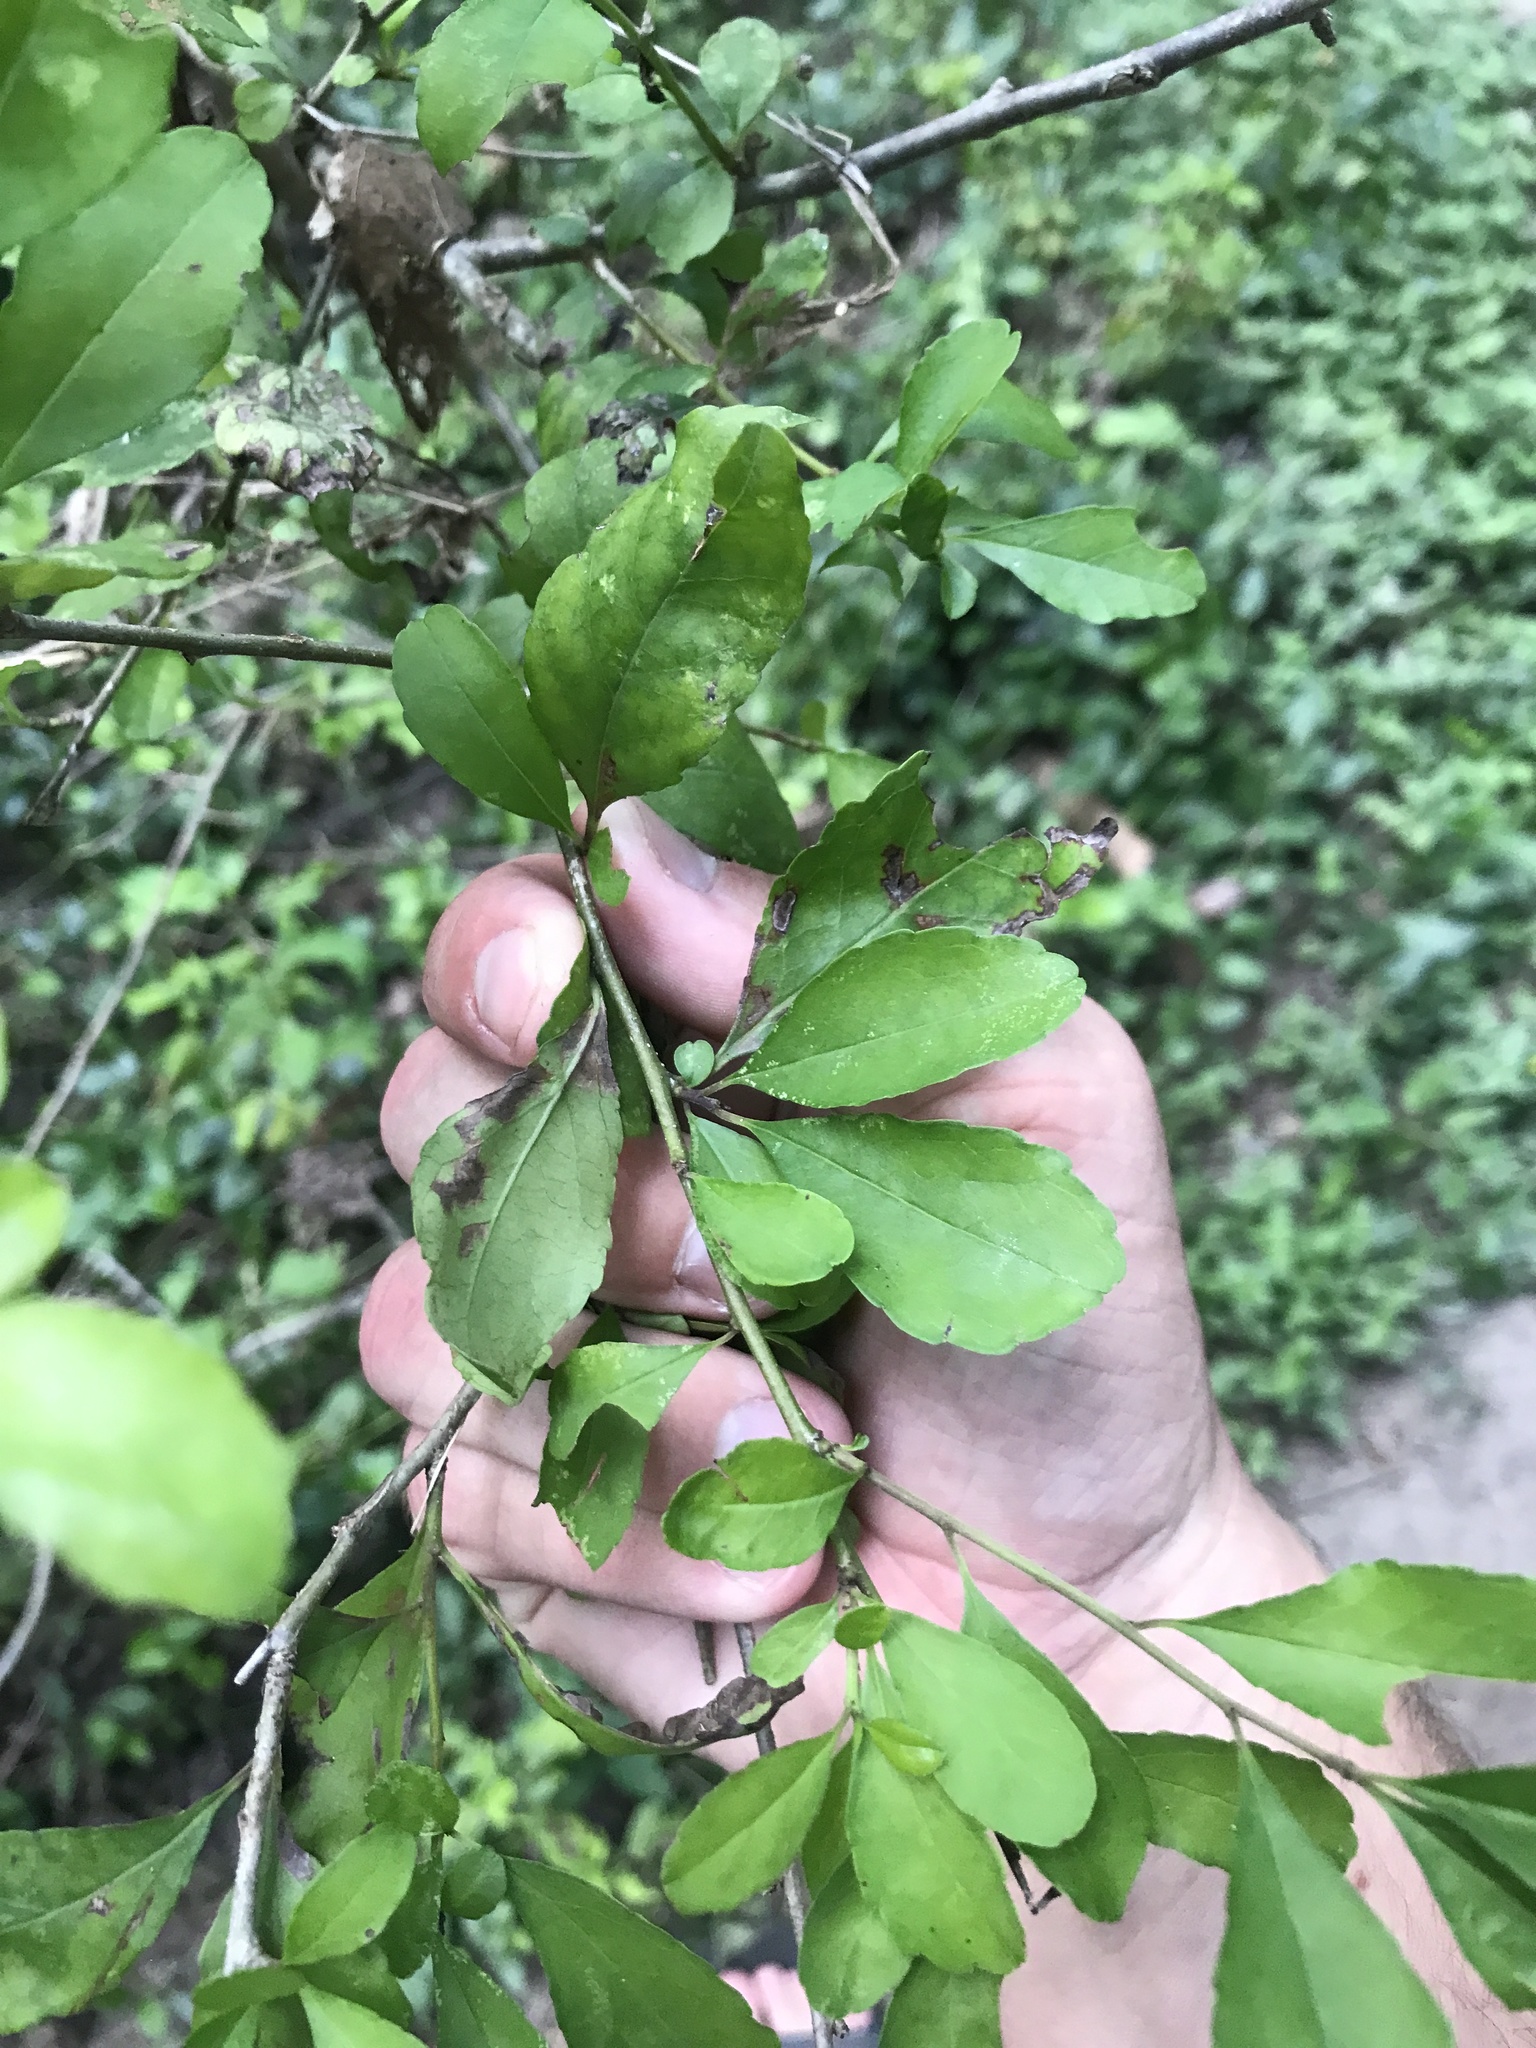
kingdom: Plantae
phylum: Tracheophyta
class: Magnoliopsida
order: Aquifoliales
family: Aquifoliaceae
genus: Ilex
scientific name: Ilex decidua
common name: Possum-haw
